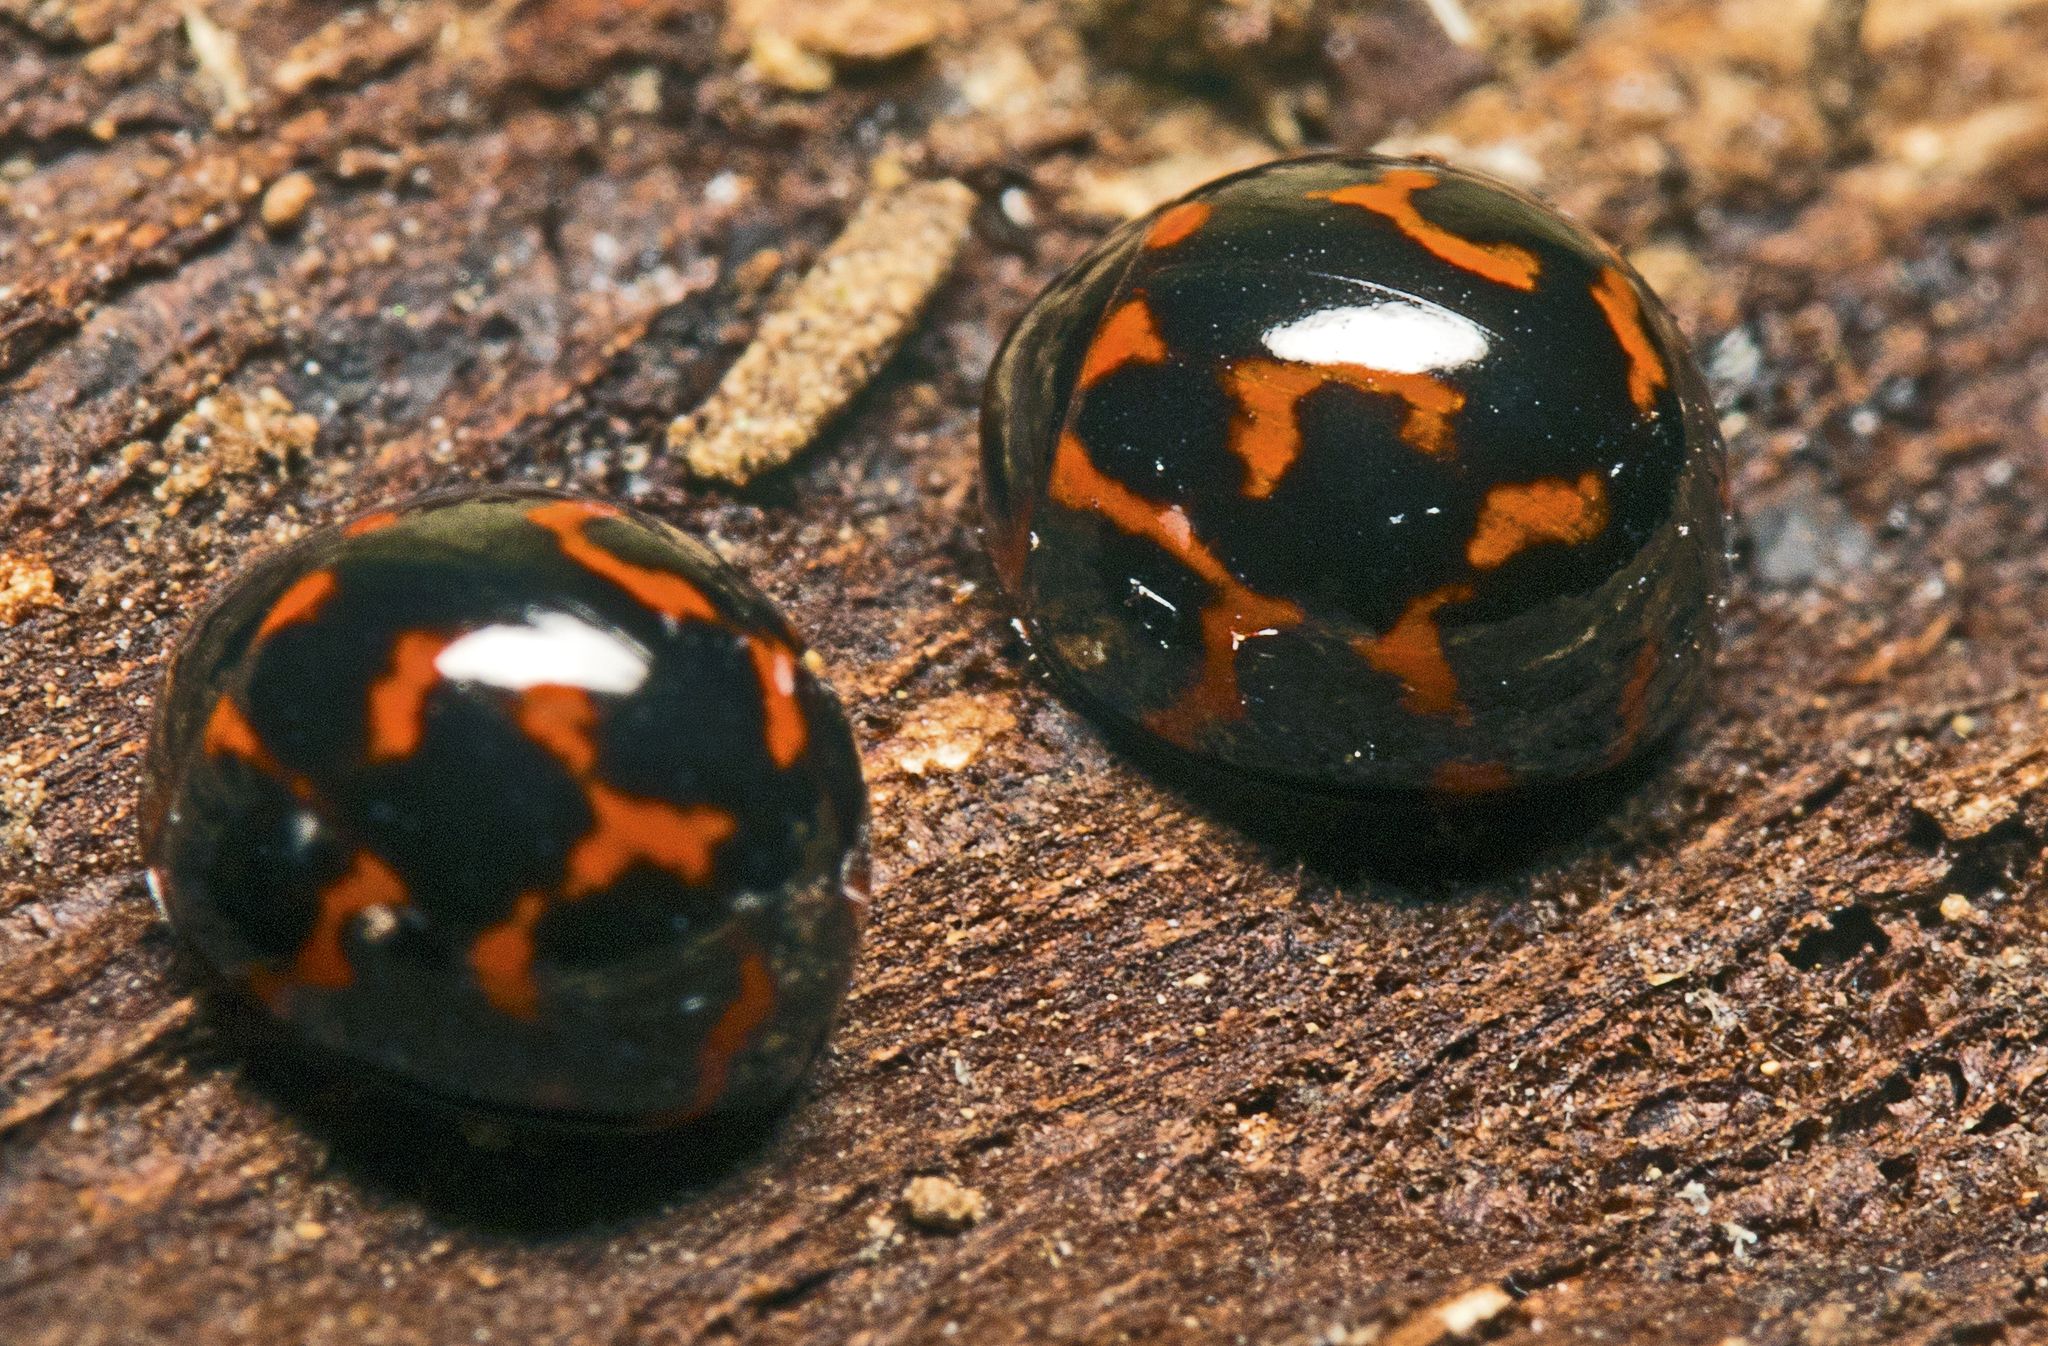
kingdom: Animalia
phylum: Arthropoda
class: Insecta
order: Coleoptera
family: Tenebrionidae
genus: Derispia
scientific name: Derispia
